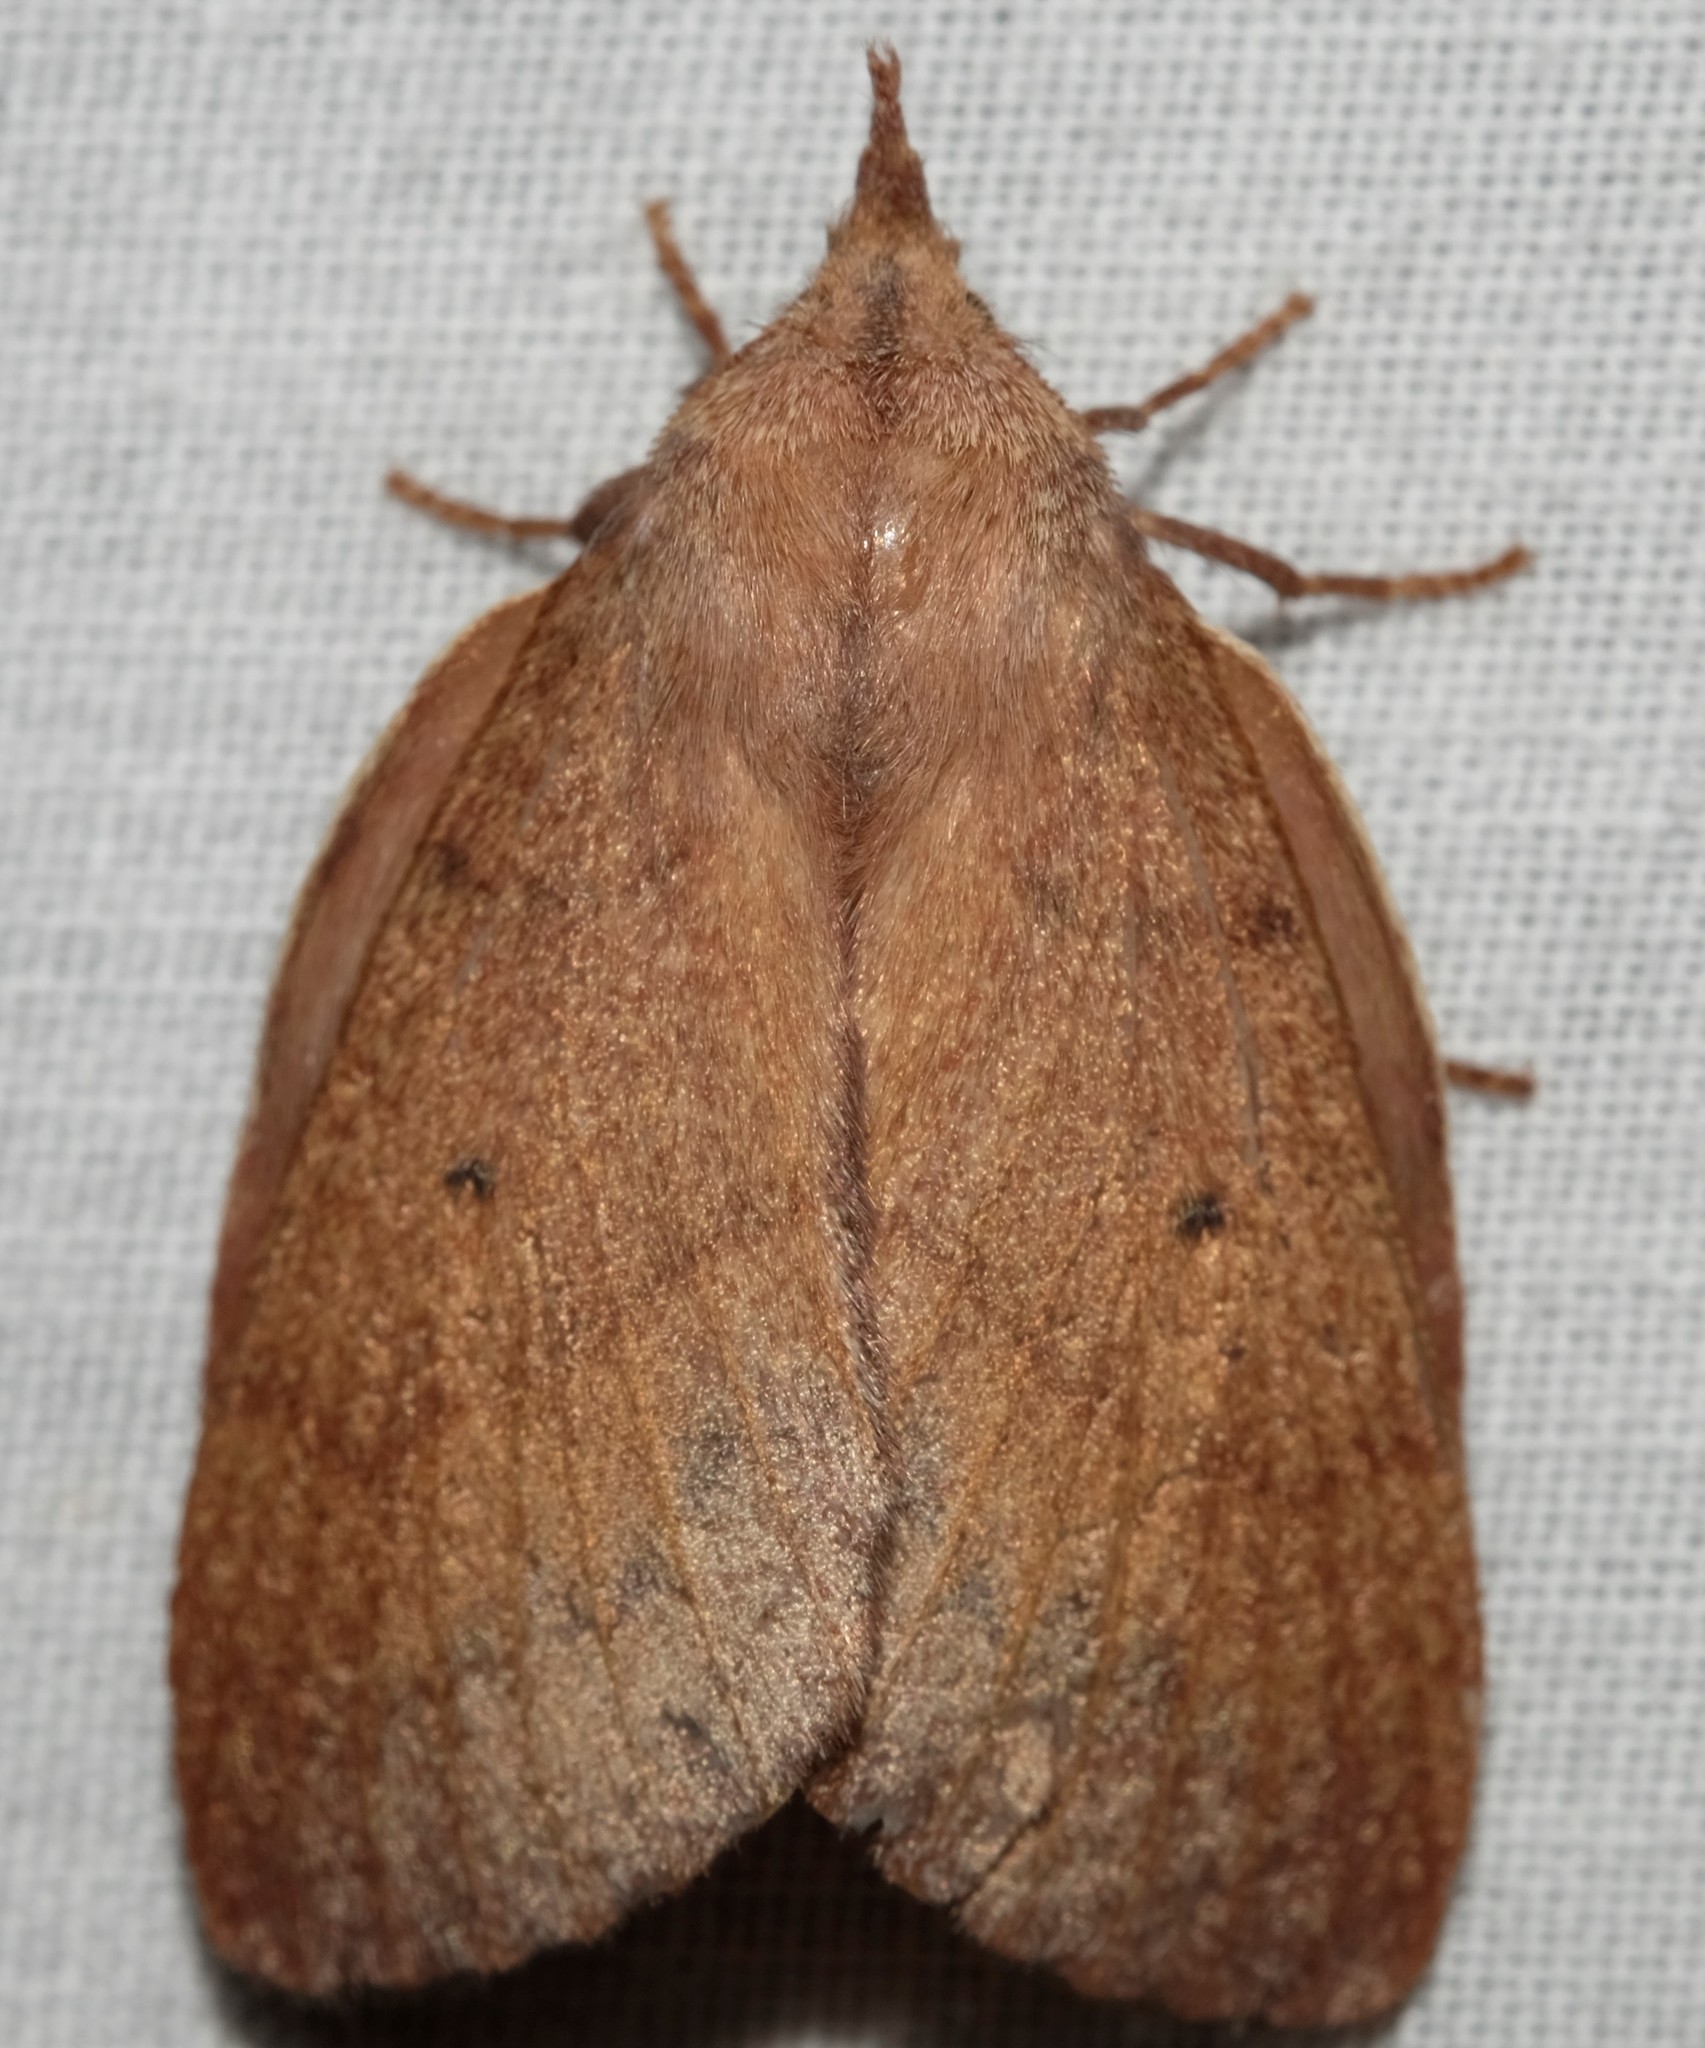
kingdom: Animalia
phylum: Arthropoda
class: Insecta
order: Lepidoptera
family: Lasiocampidae
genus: Pararguda
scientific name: Pararguda nasuta
